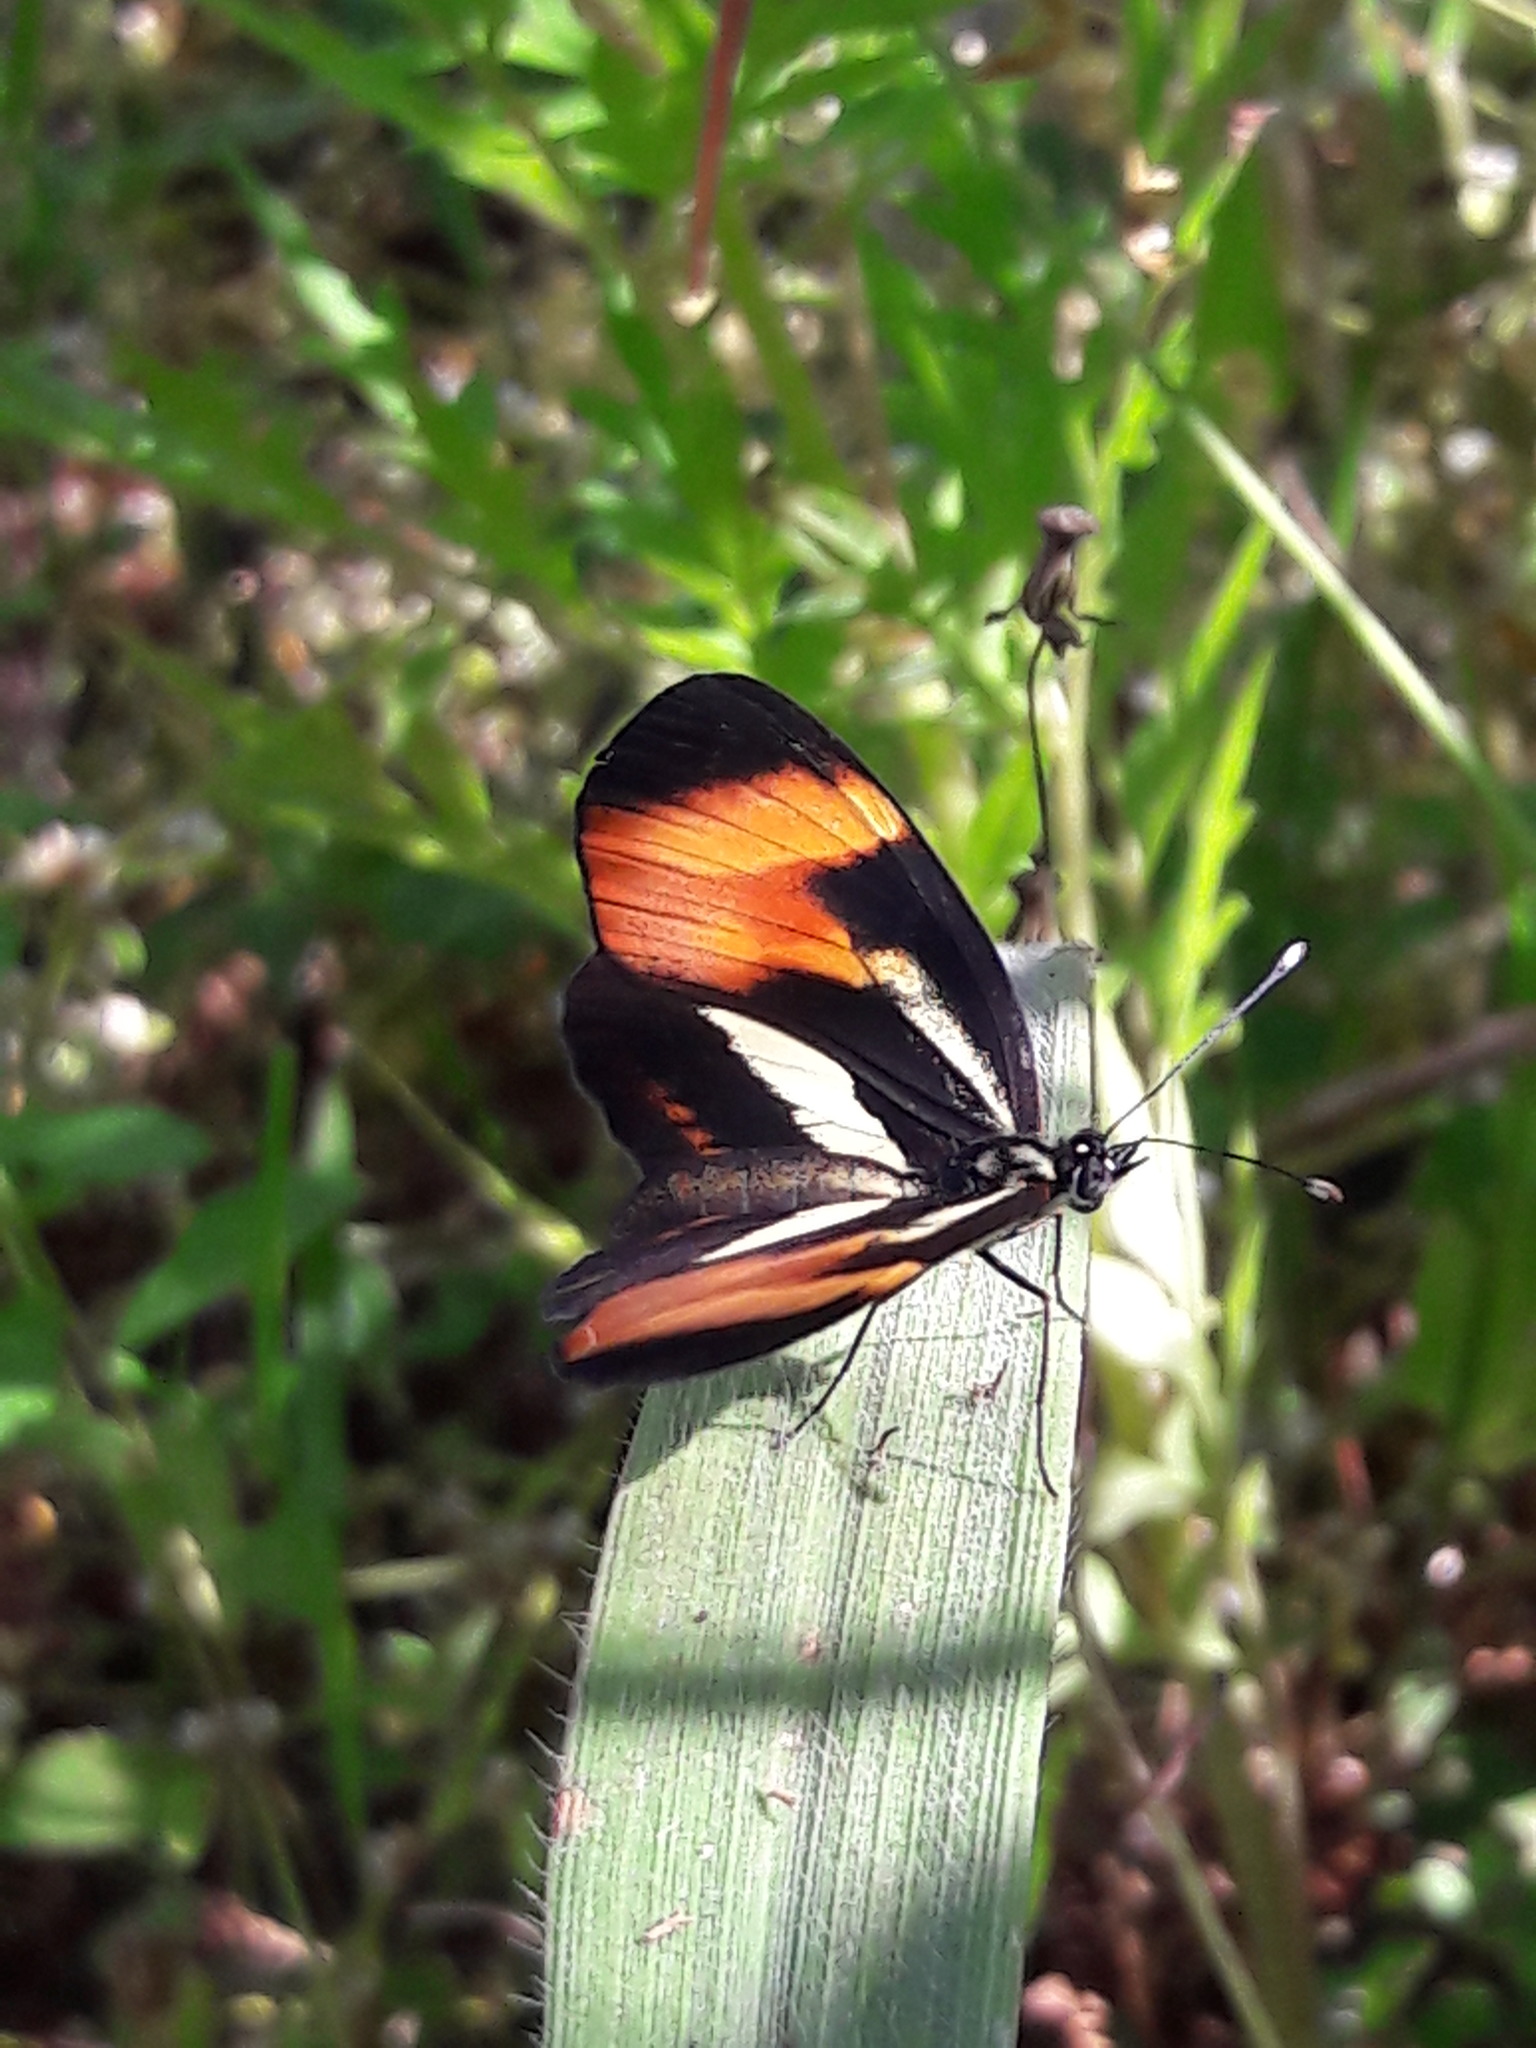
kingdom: Animalia
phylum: Arthropoda
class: Insecta
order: Lepidoptera
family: Nymphalidae
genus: Eresia
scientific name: Eresia lansdorfi
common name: Lansdorf's crescent
